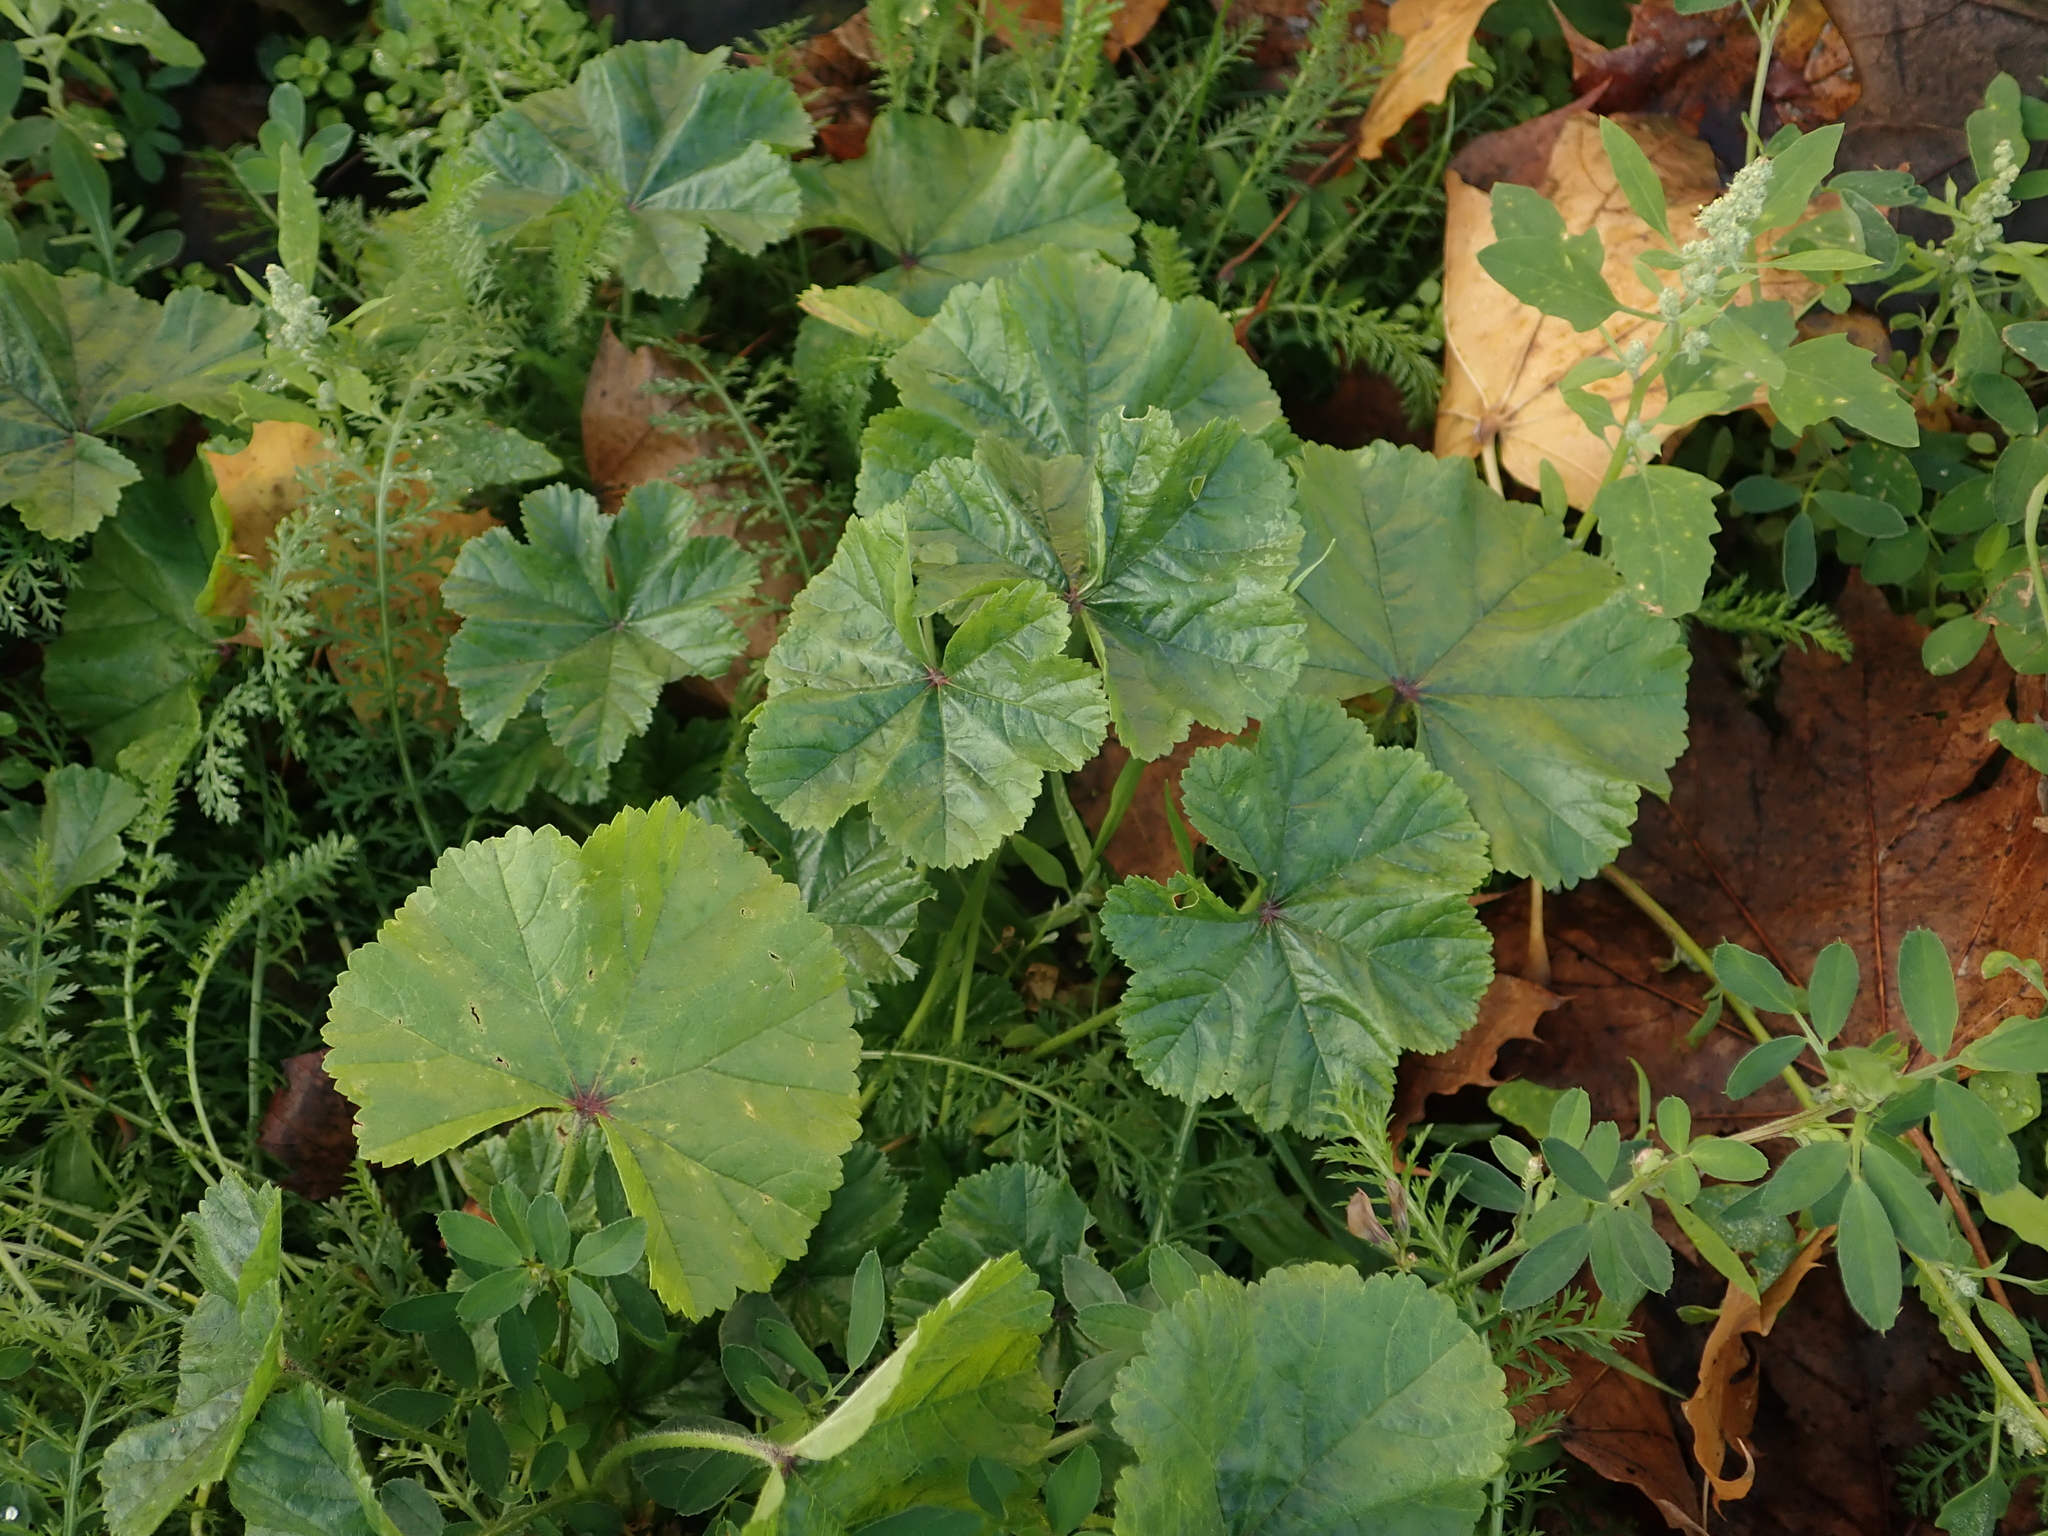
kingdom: Plantae
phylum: Tracheophyta
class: Magnoliopsida
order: Malvales
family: Malvaceae
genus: Malva
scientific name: Malva neglecta
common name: Common mallow
